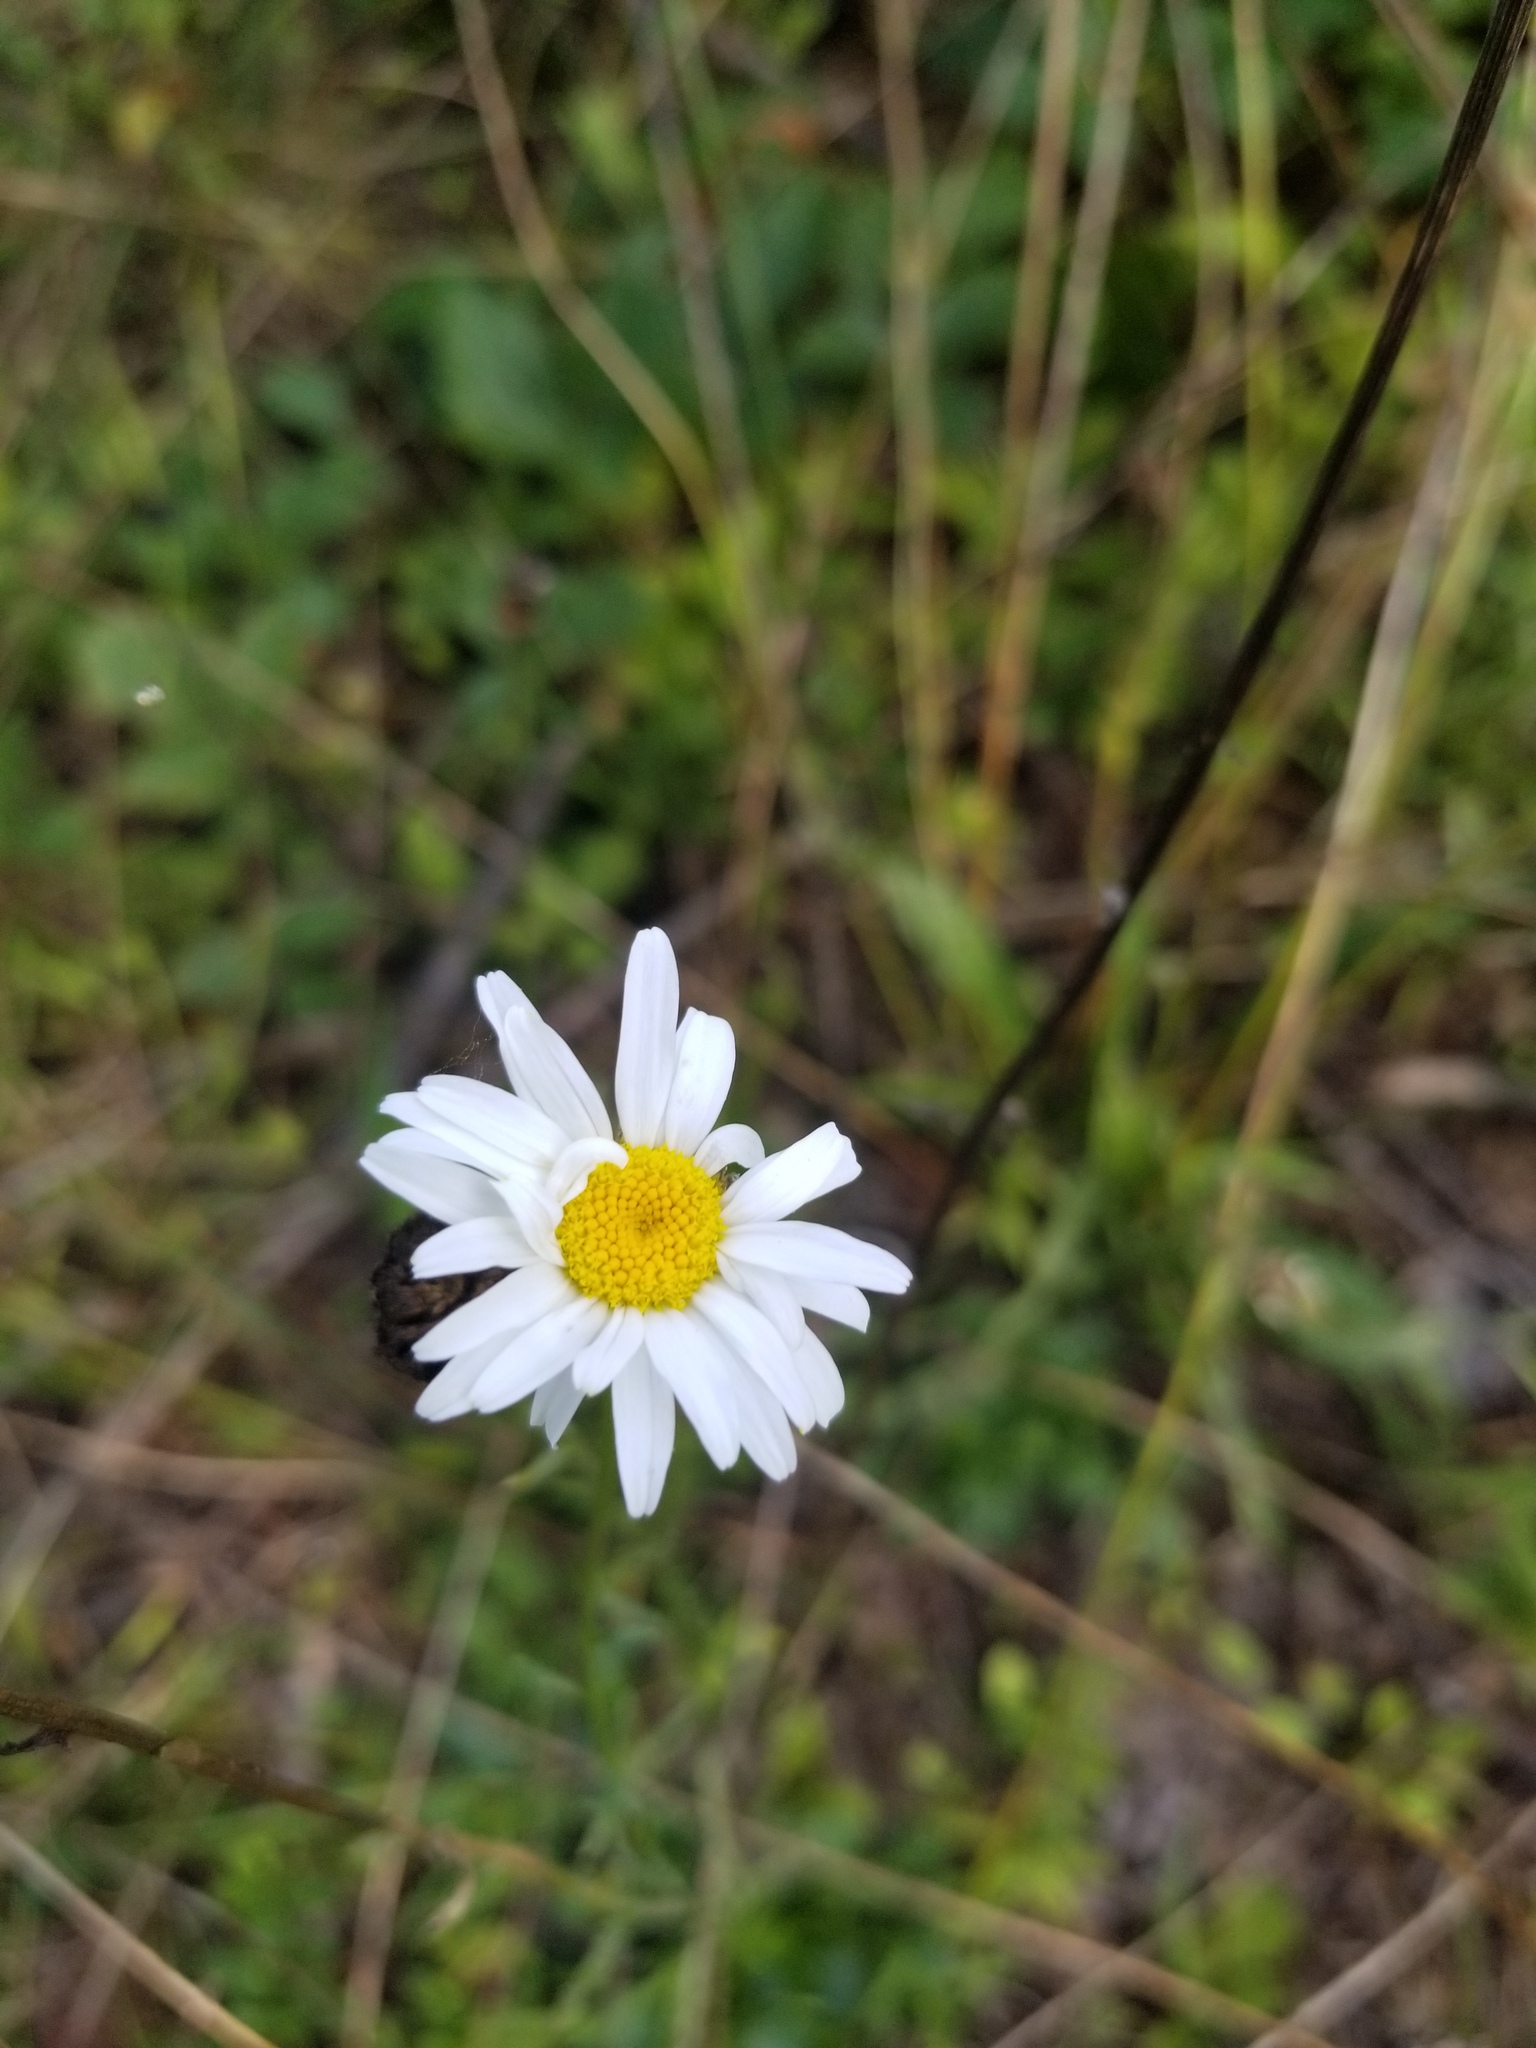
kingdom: Plantae
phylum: Tracheophyta
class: Magnoliopsida
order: Asterales
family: Asteraceae
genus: Leucanthemum
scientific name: Leucanthemum vulgare
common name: Oxeye daisy
